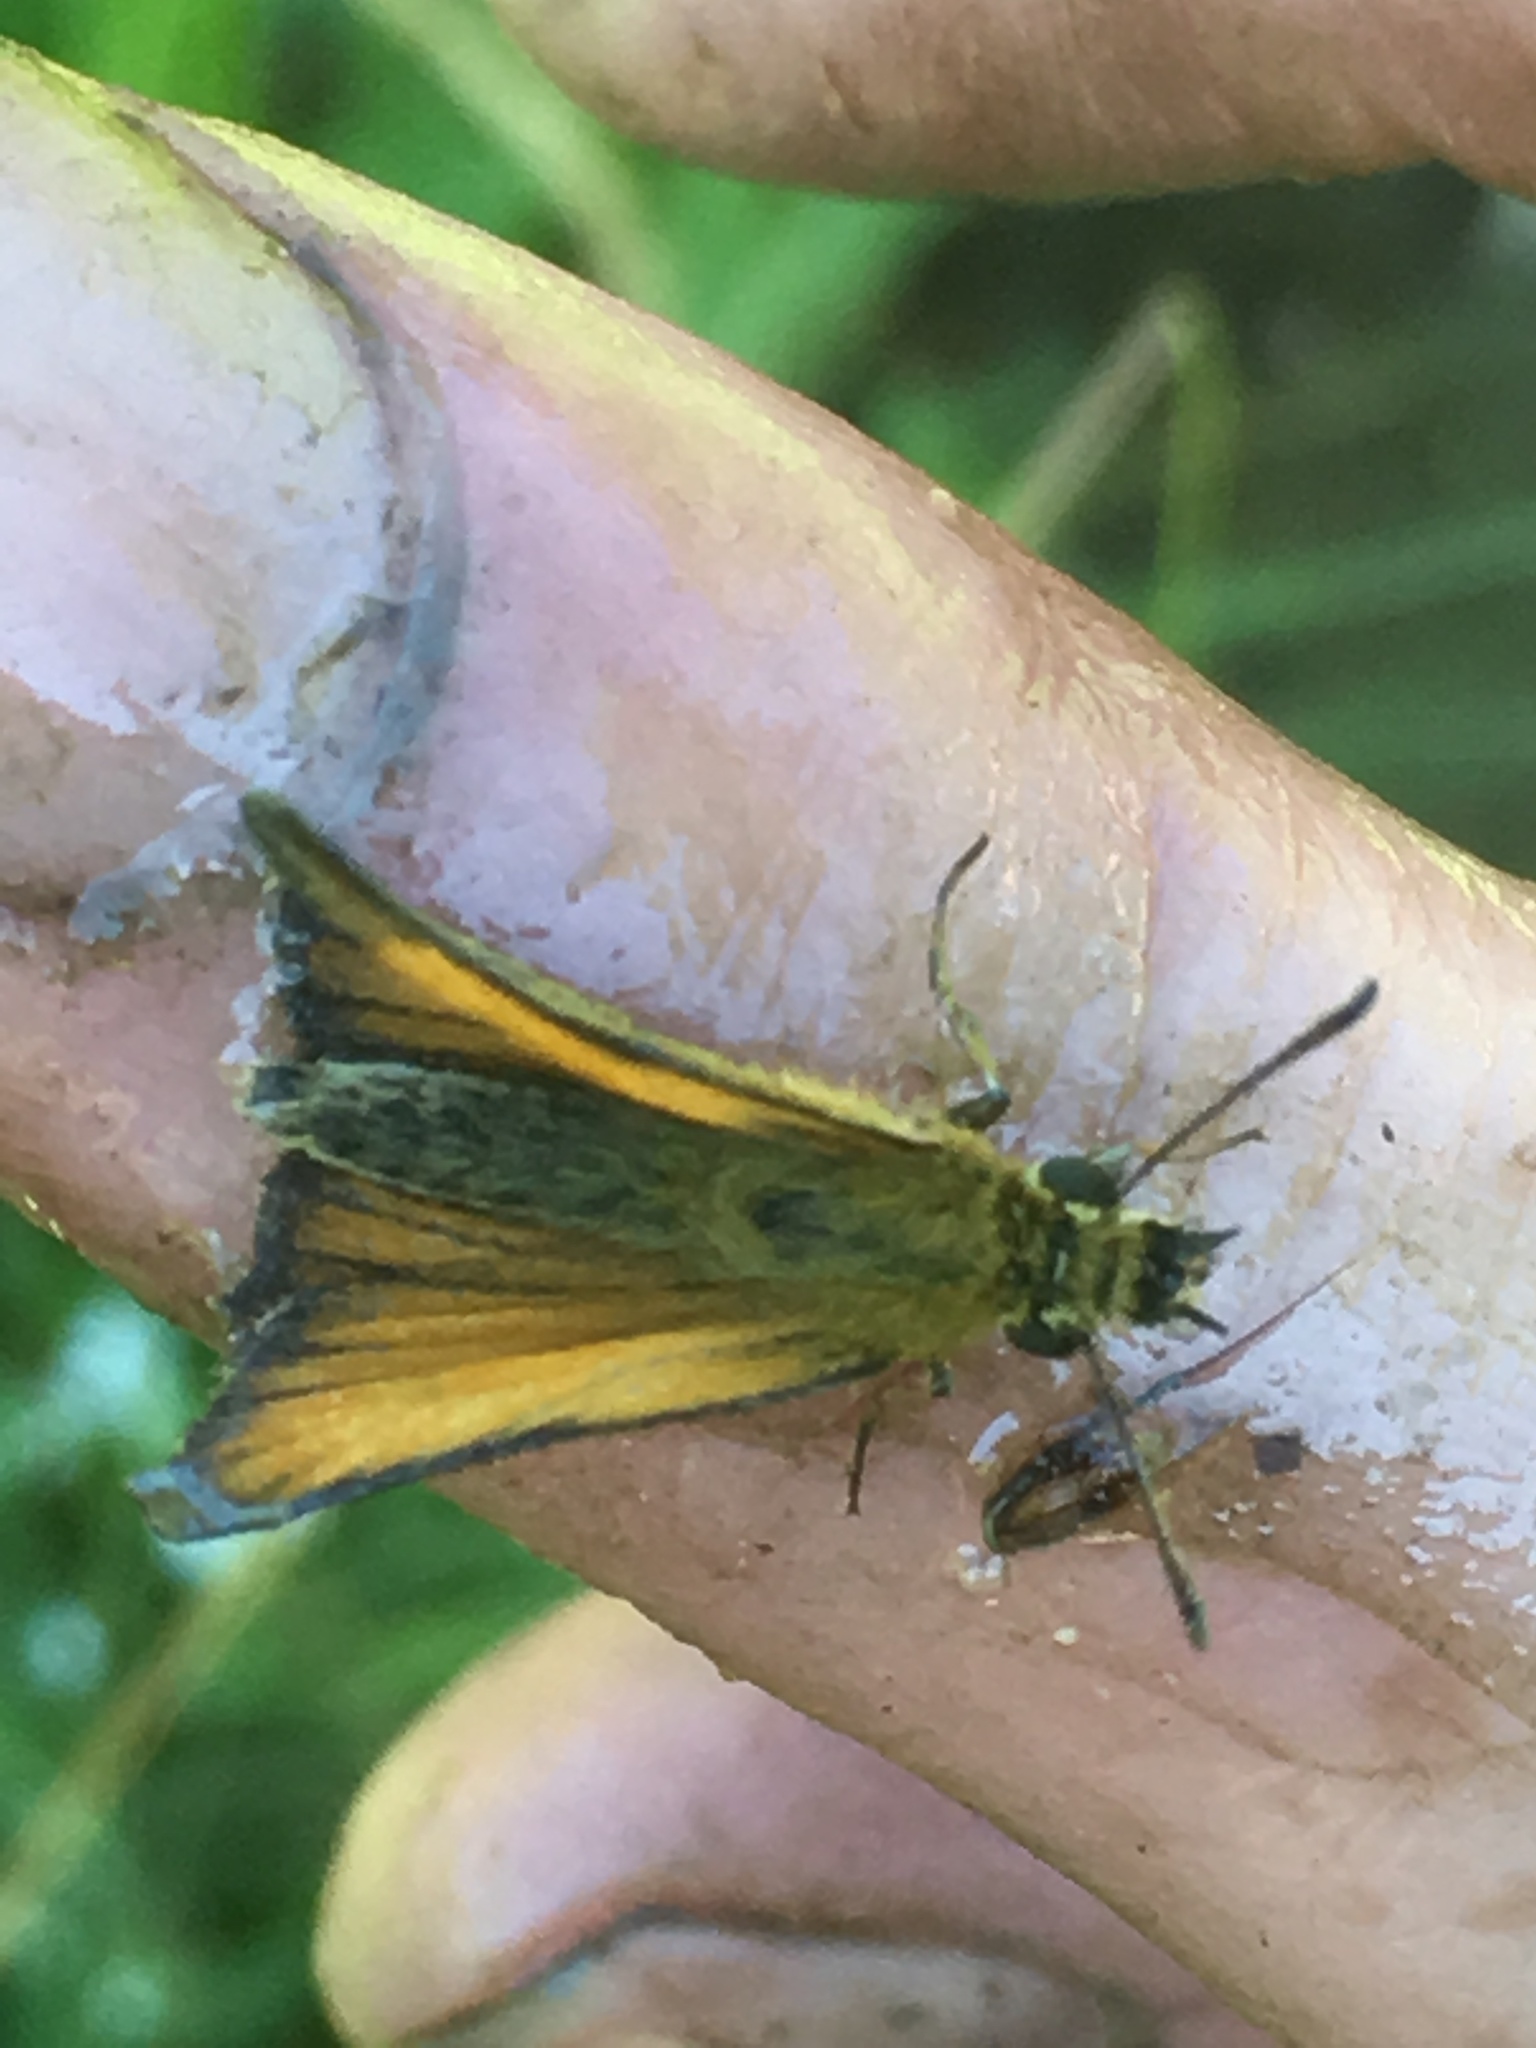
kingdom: Animalia
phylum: Arthropoda
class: Insecta
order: Lepidoptera
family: Hesperiidae
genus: Thymelicus
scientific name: Thymelicus lineola
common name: Essex skipper
